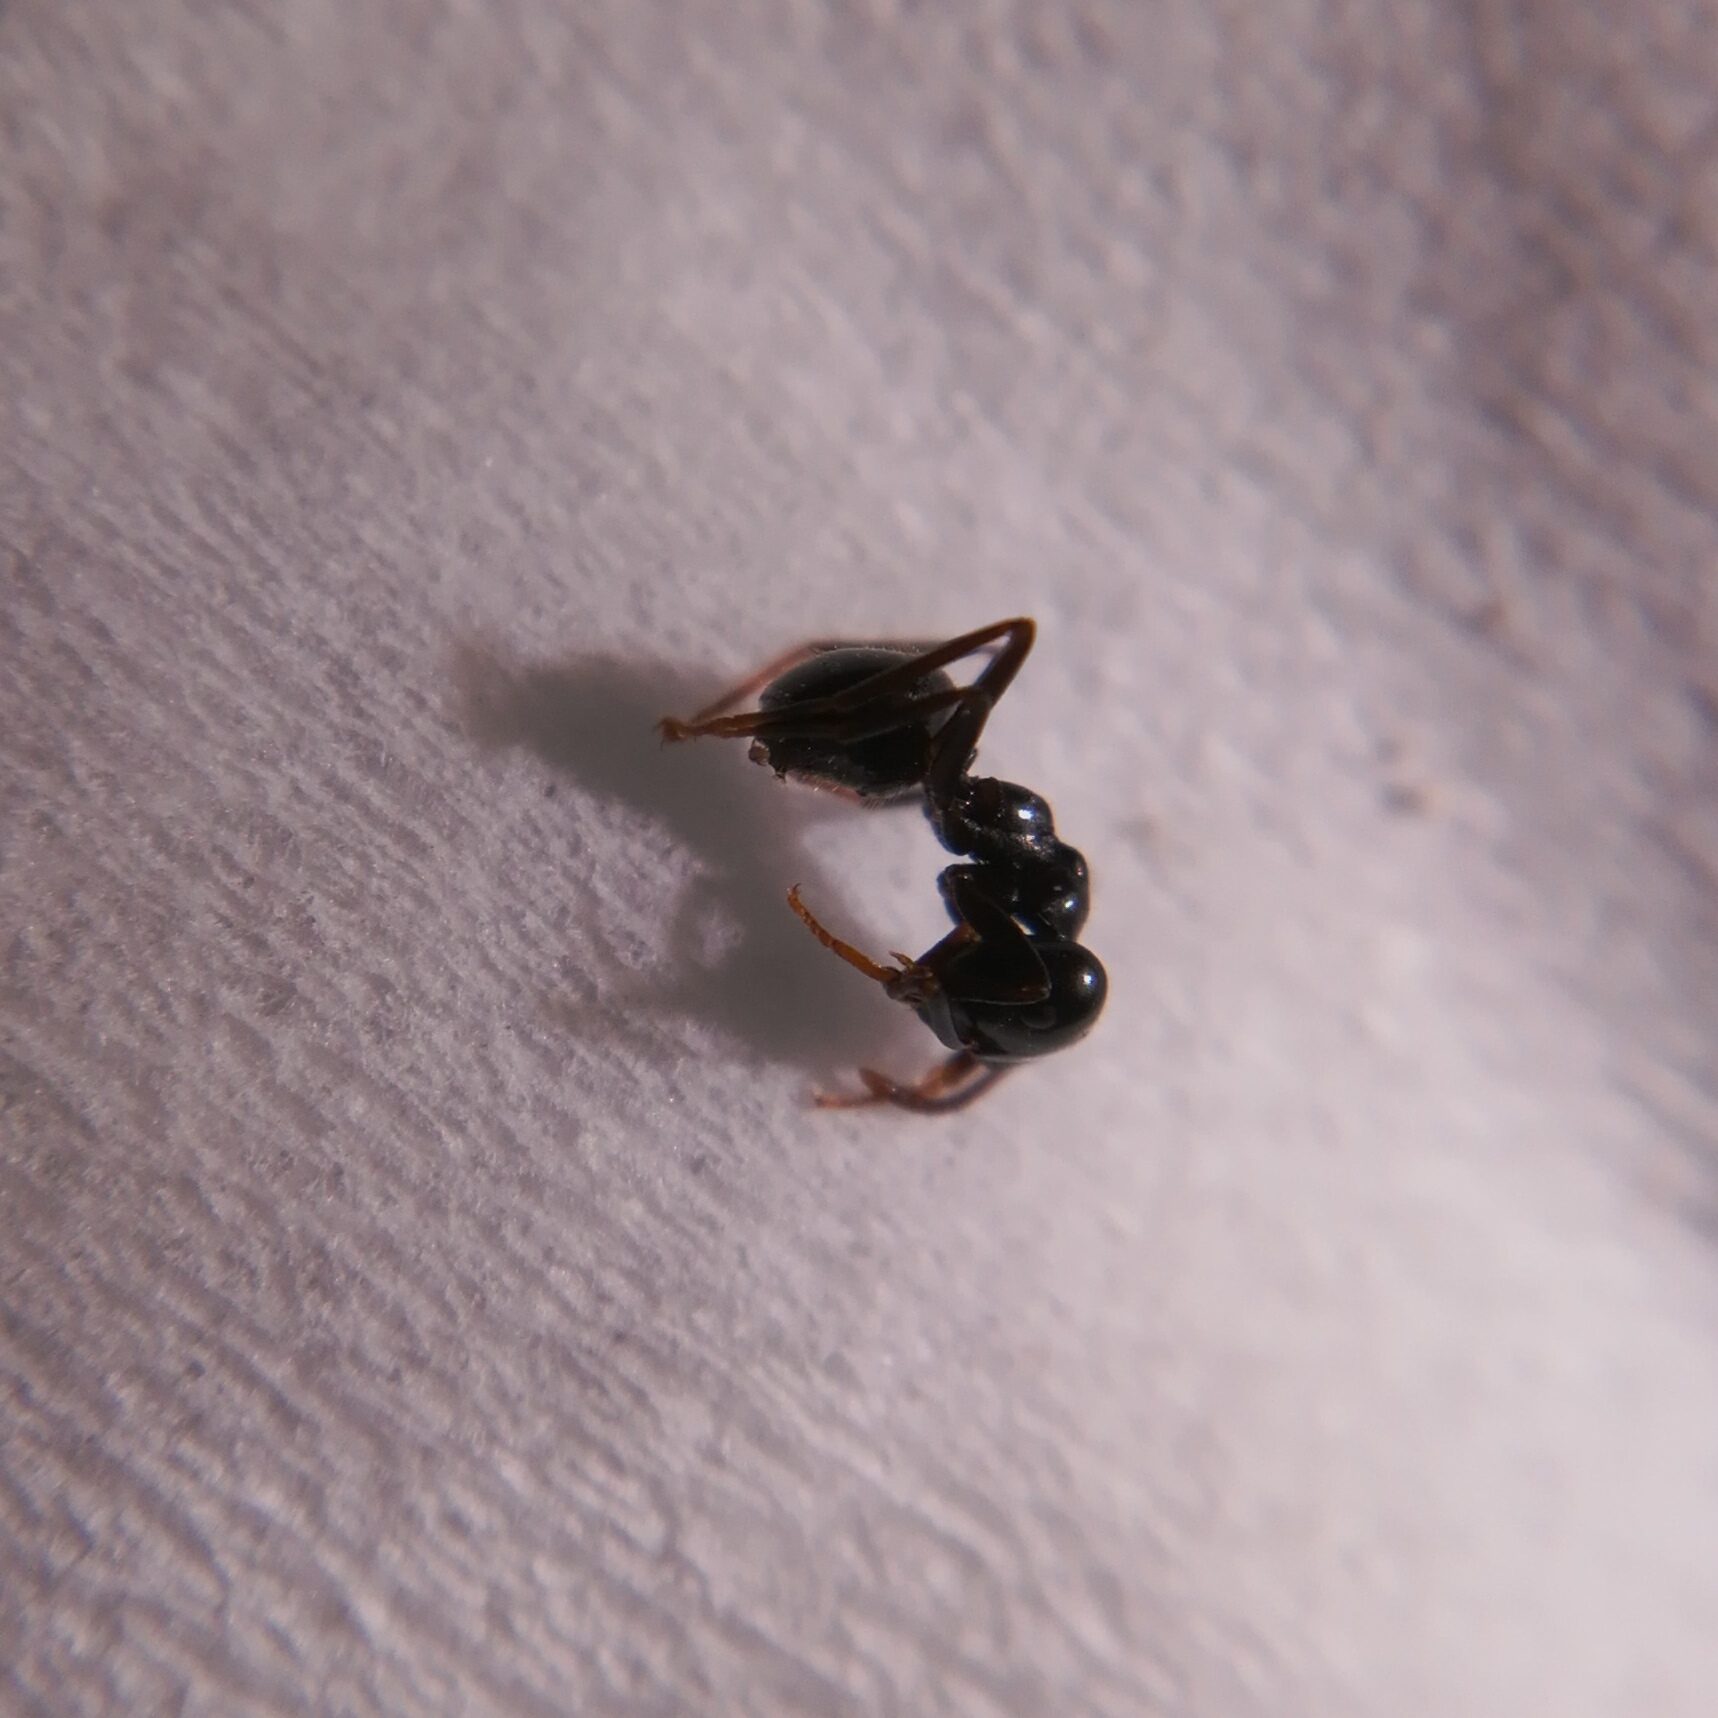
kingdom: Animalia
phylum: Arthropoda
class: Insecta
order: Hymenoptera
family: Formicidae
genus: Lasius
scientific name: Lasius fuliginosus
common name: Jet ant
